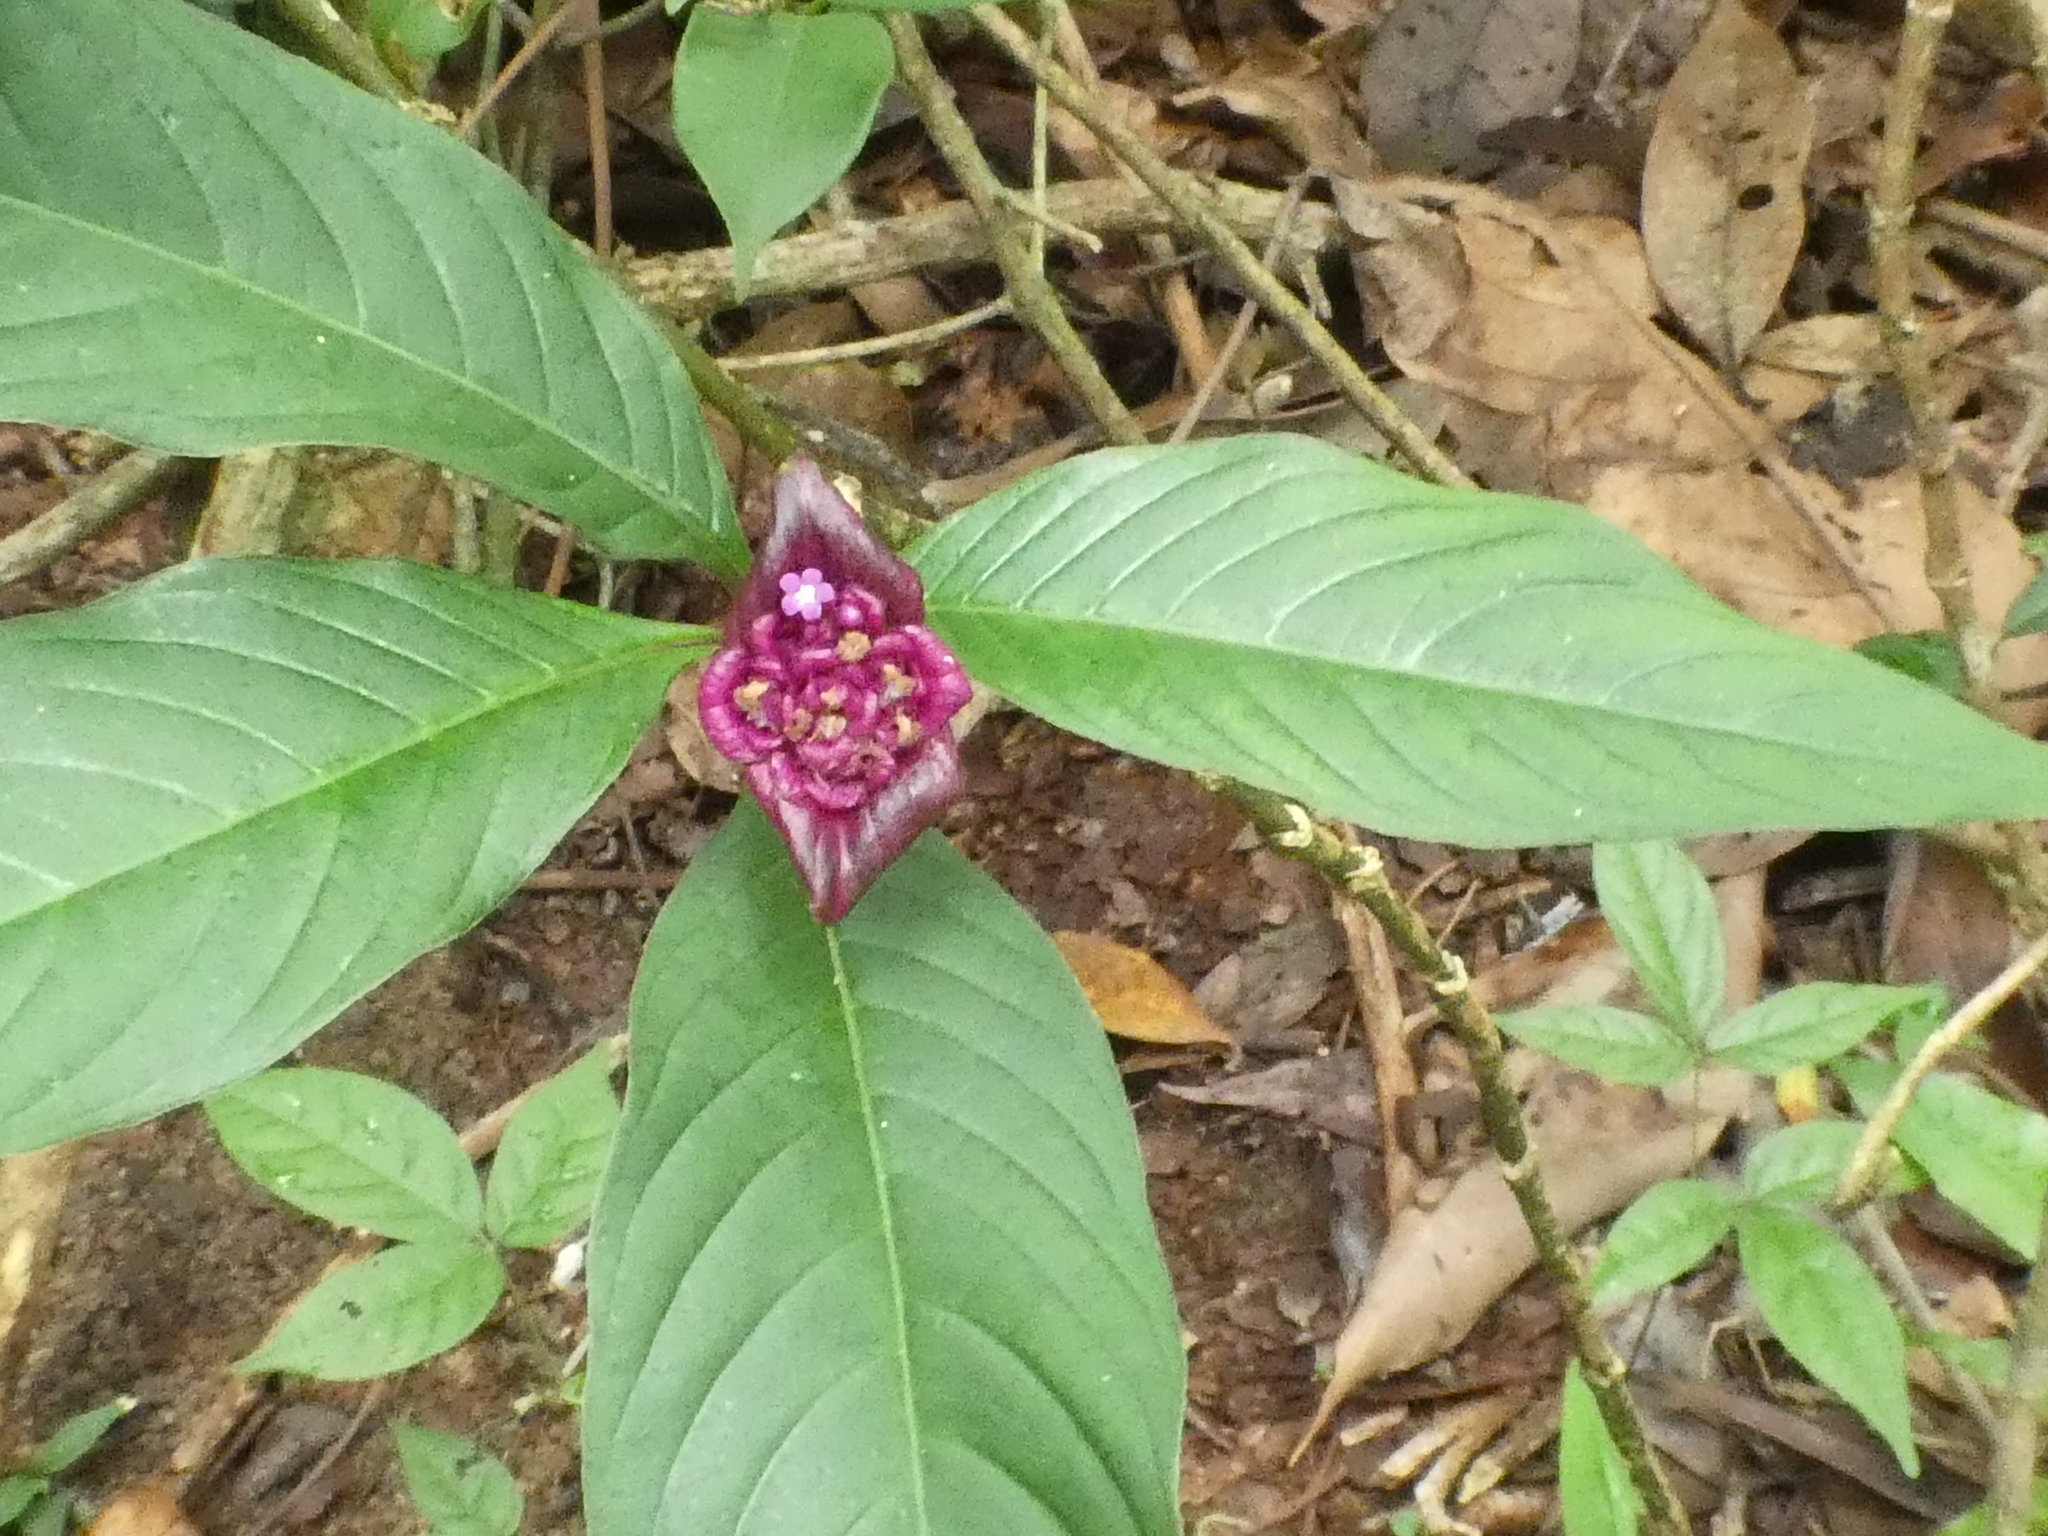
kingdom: Plantae
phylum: Tracheophyta
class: Magnoliopsida
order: Gentianales
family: Rubiaceae
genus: Palicourea
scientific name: Palicourea colorata
